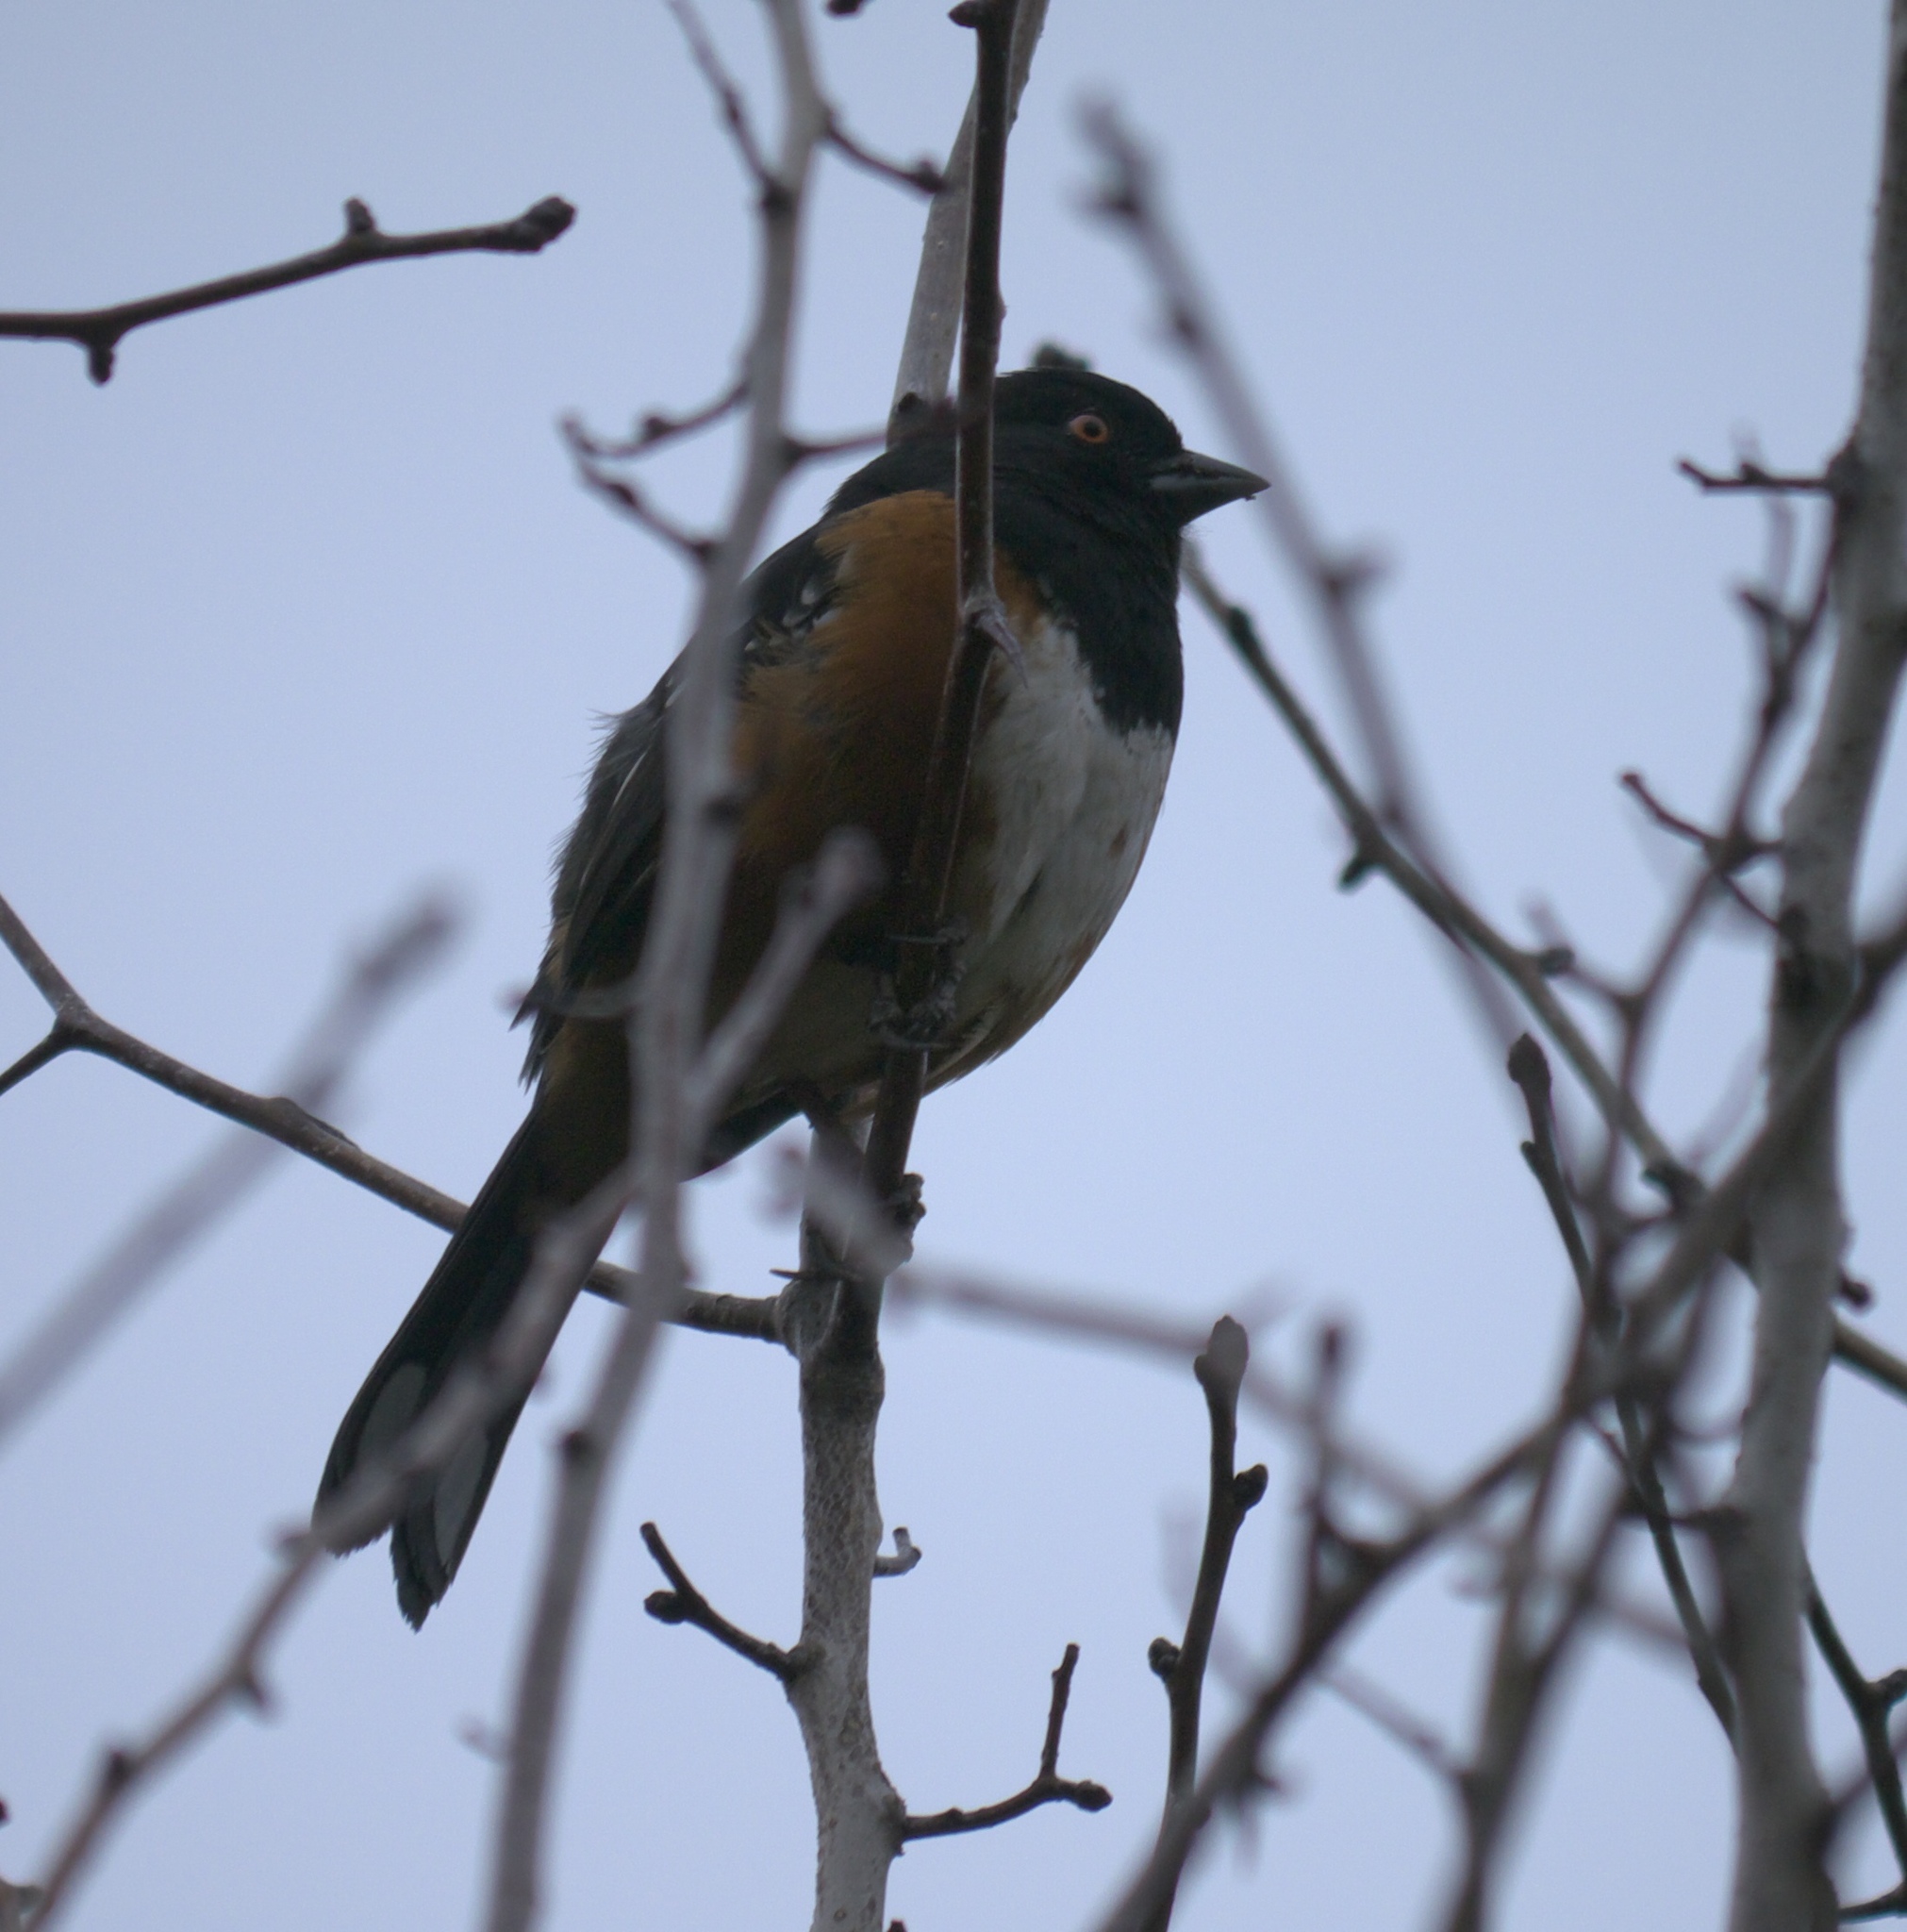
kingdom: Animalia
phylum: Chordata
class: Aves
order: Passeriformes
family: Passerellidae
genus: Pipilo
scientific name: Pipilo maculatus
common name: Spotted towhee
